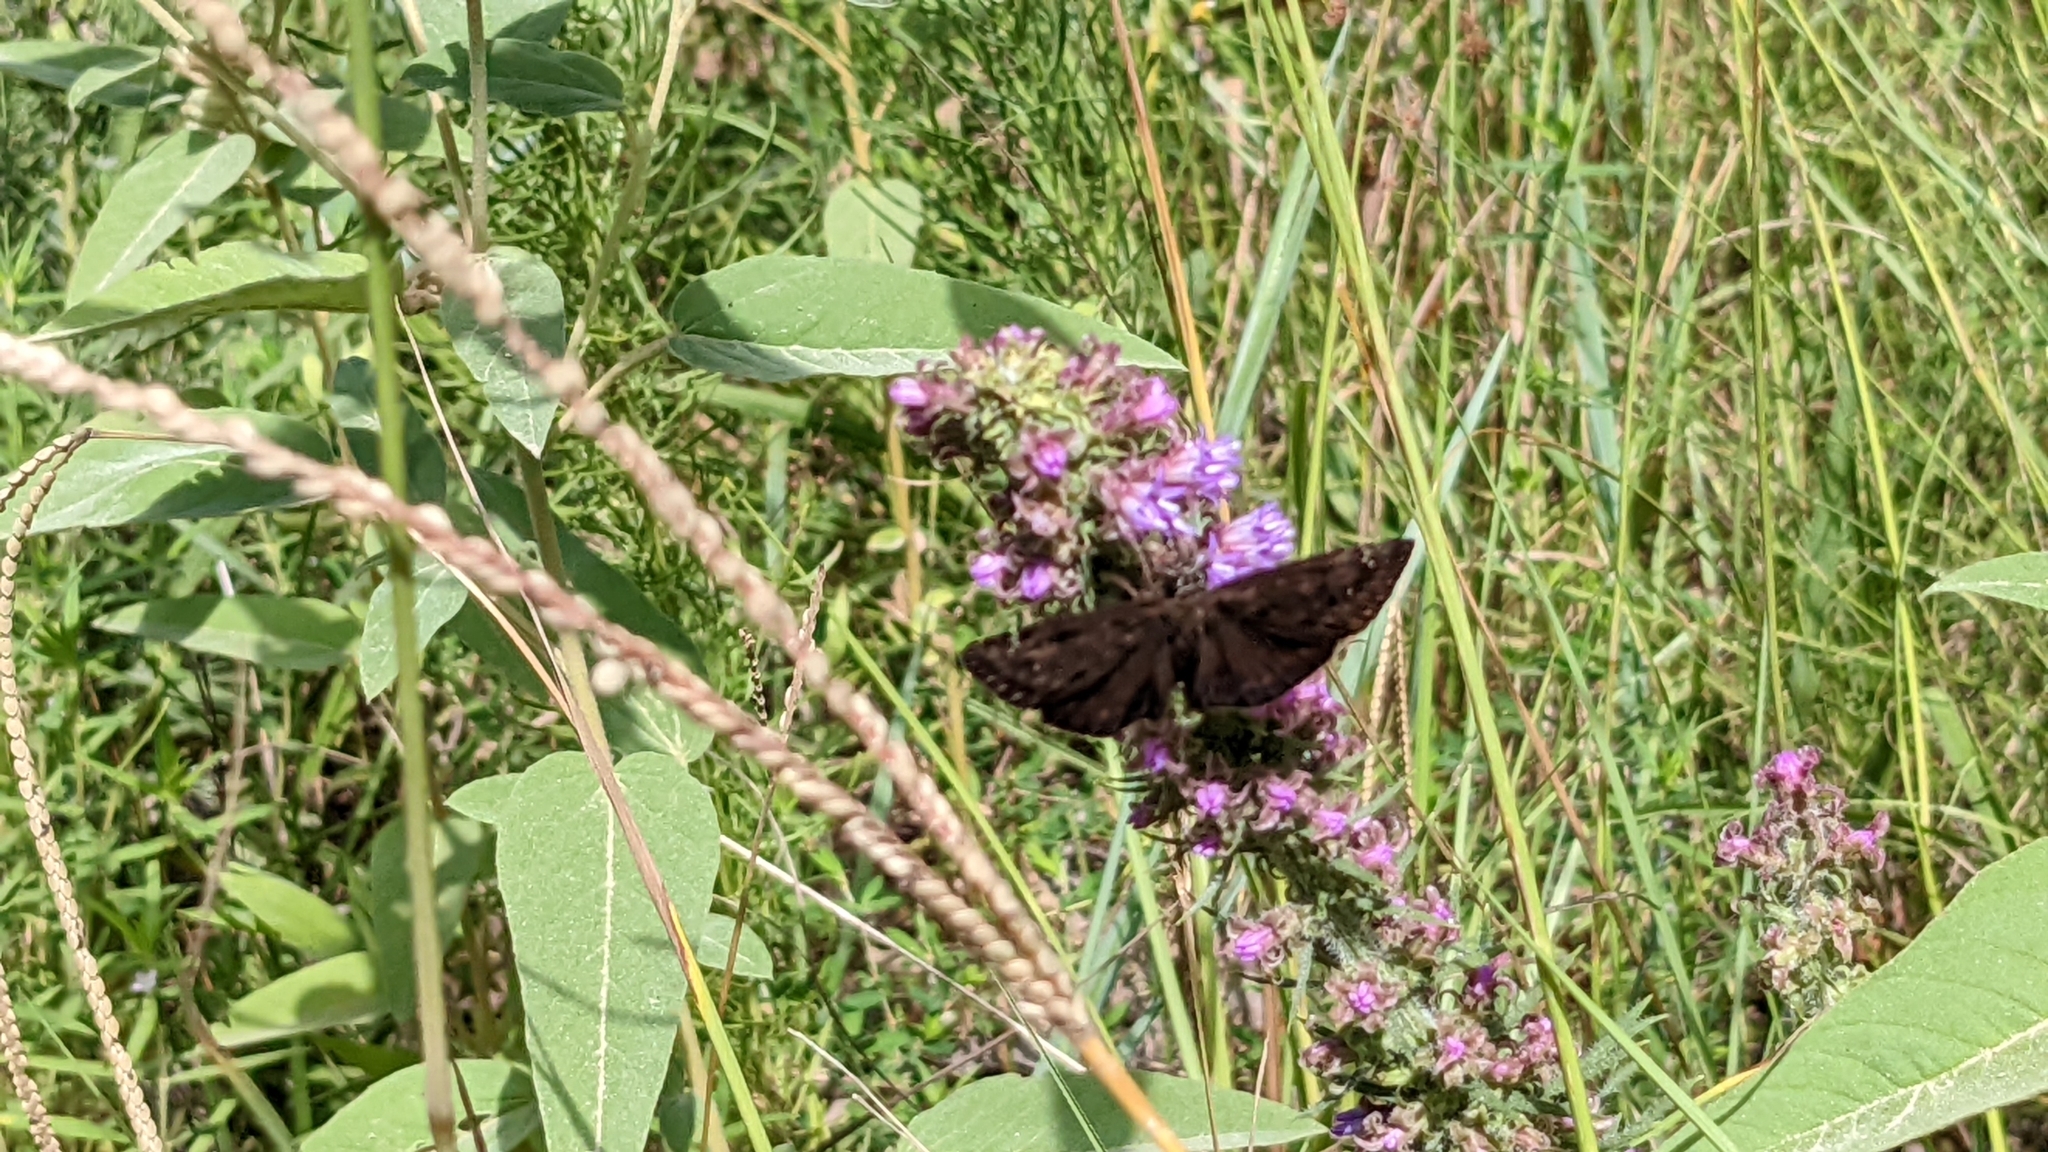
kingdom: Animalia
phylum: Arthropoda
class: Insecta
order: Lepidoptera
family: Hesperiidae
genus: Erynnis
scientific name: Erynnis horatius
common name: Horace's duskywing
